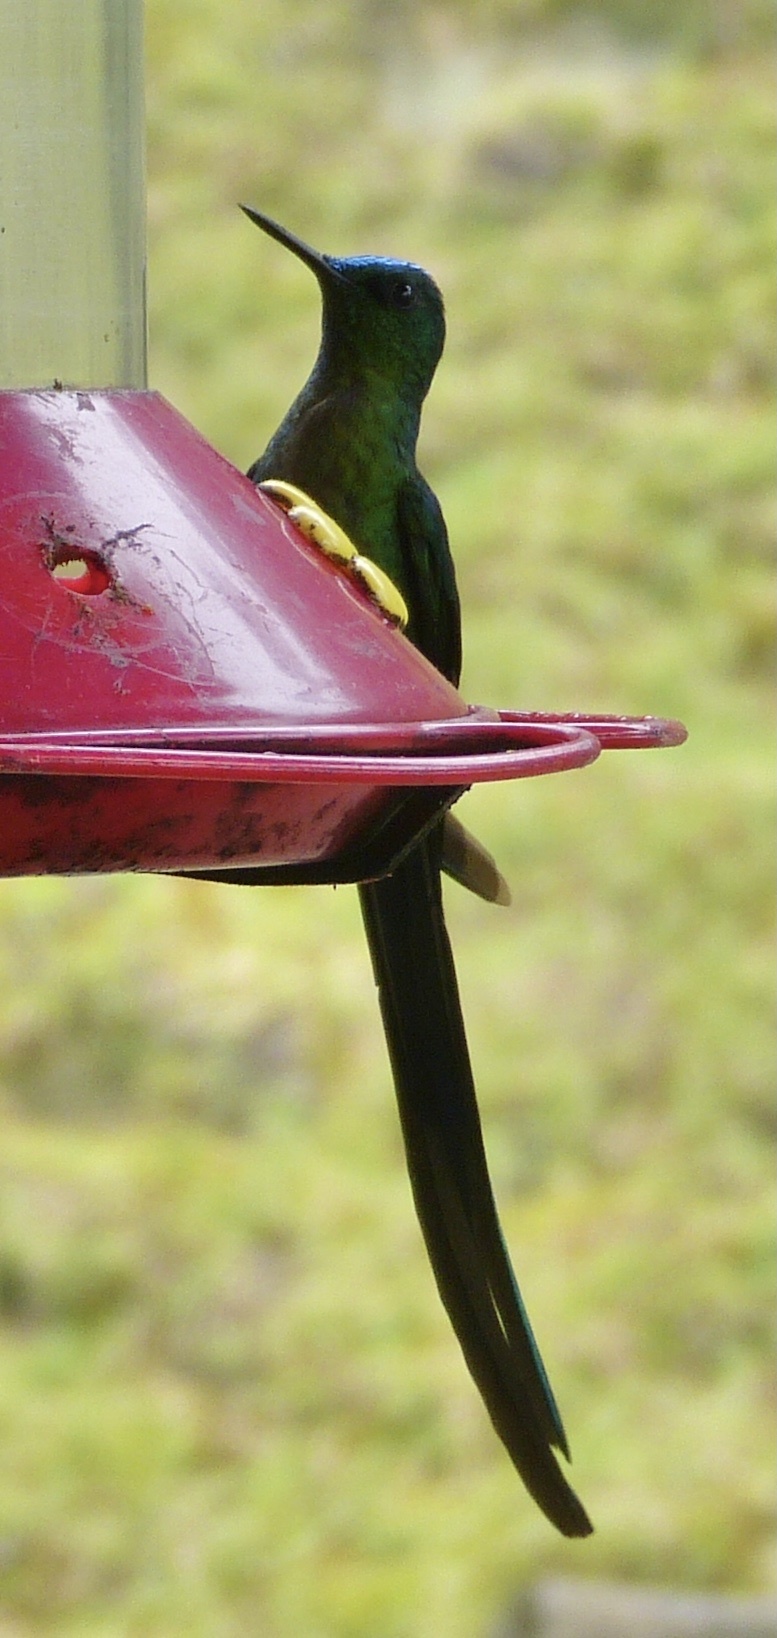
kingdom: Animalia
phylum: Chordata
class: Aves
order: Apodiformes
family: Trochilidae
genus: Aglaiocercus
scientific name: Aglaiocercus kingii
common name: Long-tailed sylph
